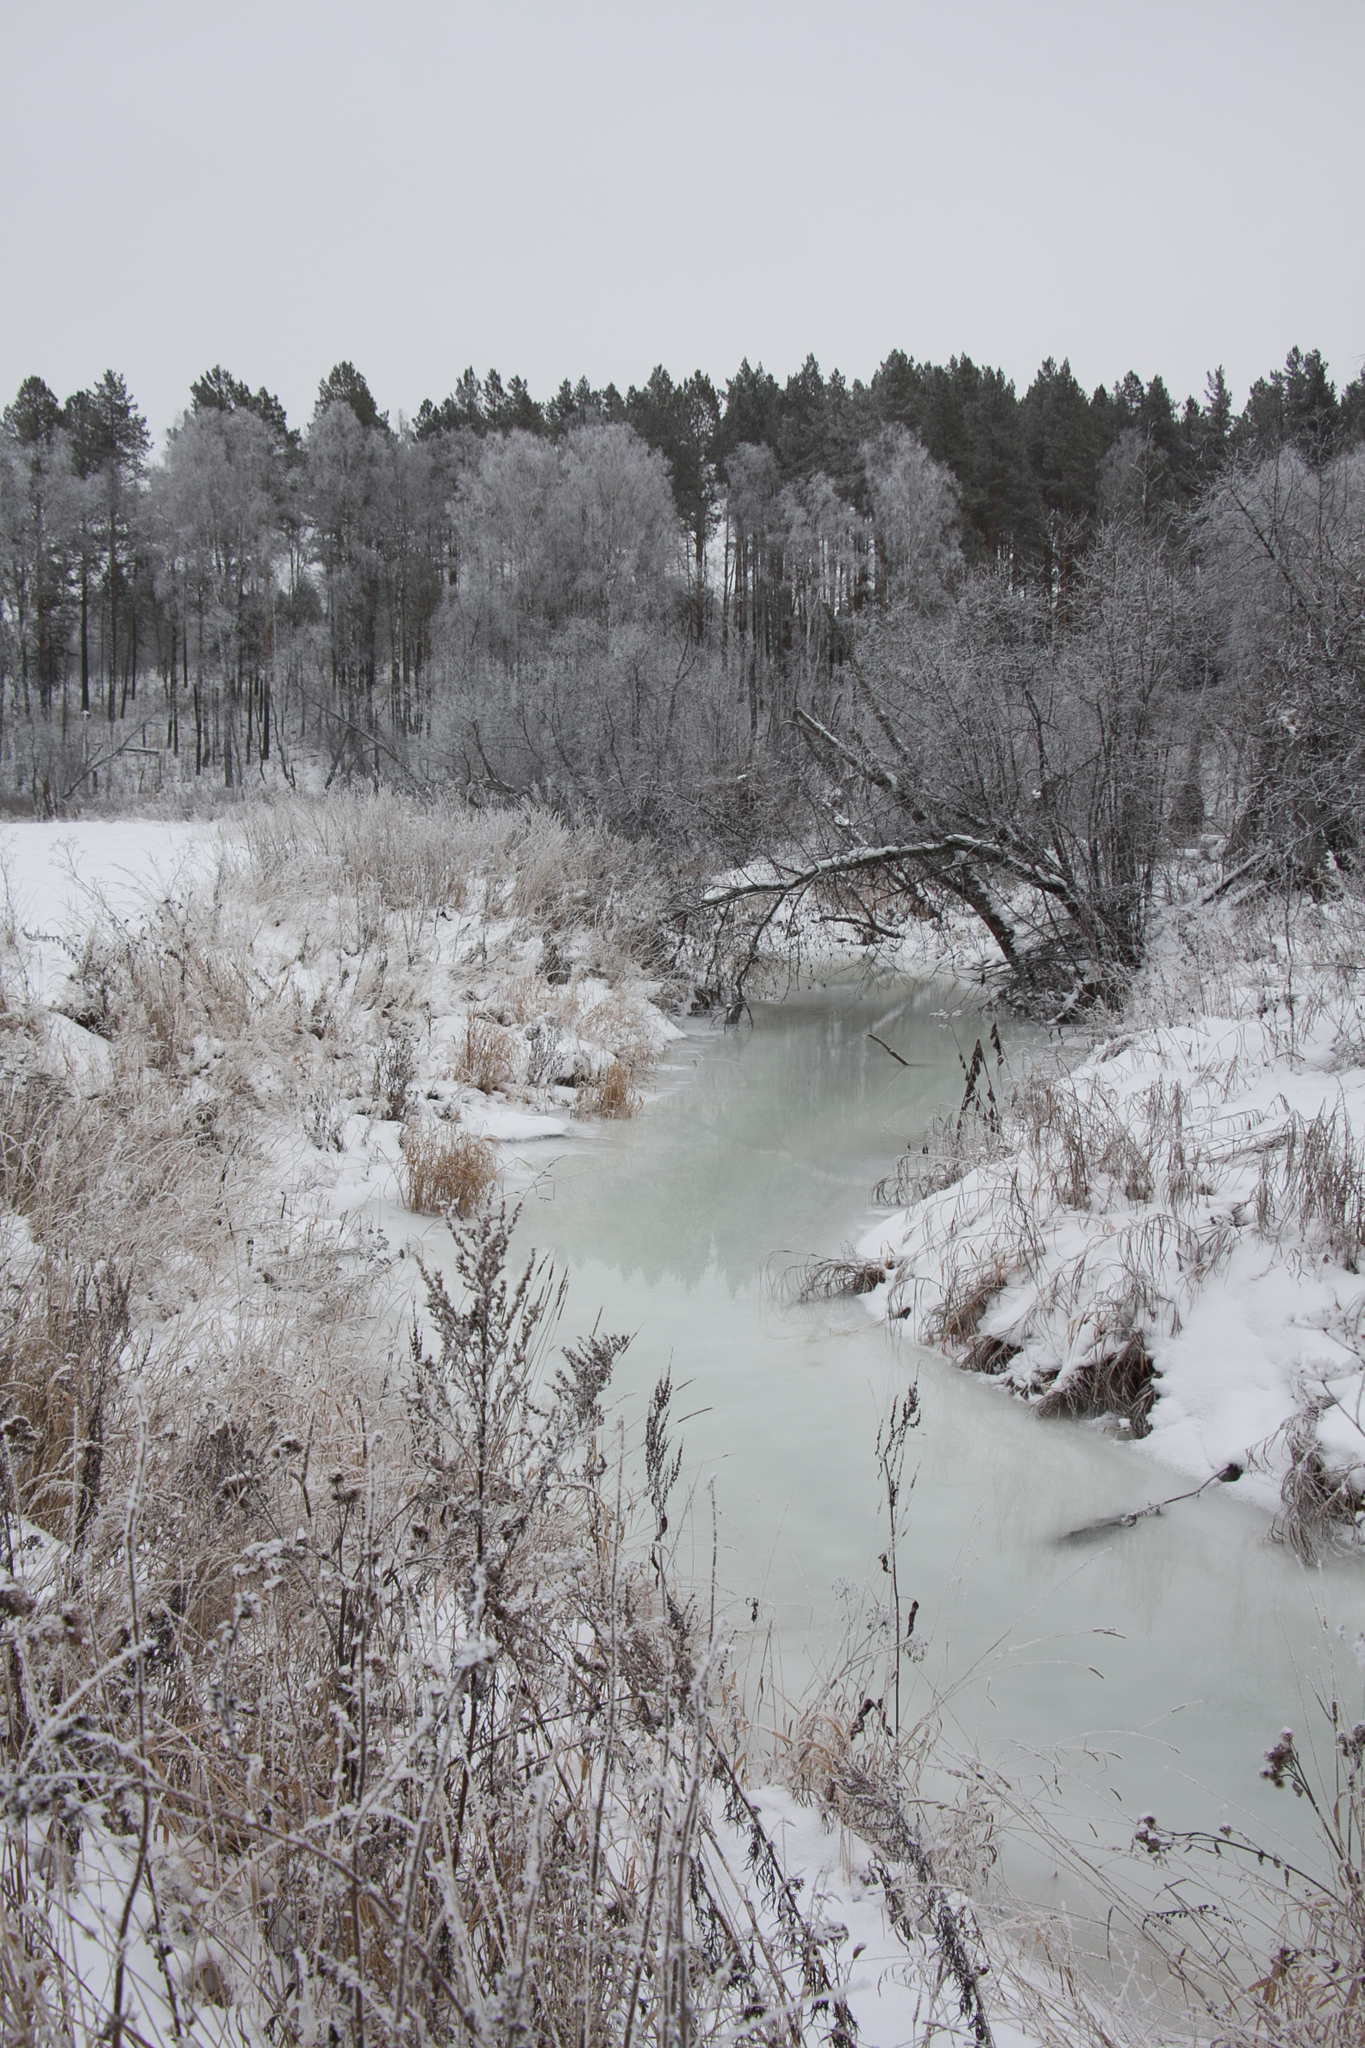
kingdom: Plantae
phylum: Tracheophyta
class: Pinopsida
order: Pinales
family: Pinaceae
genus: Pinus
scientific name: Pinus sylvestris
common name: Scots pine
